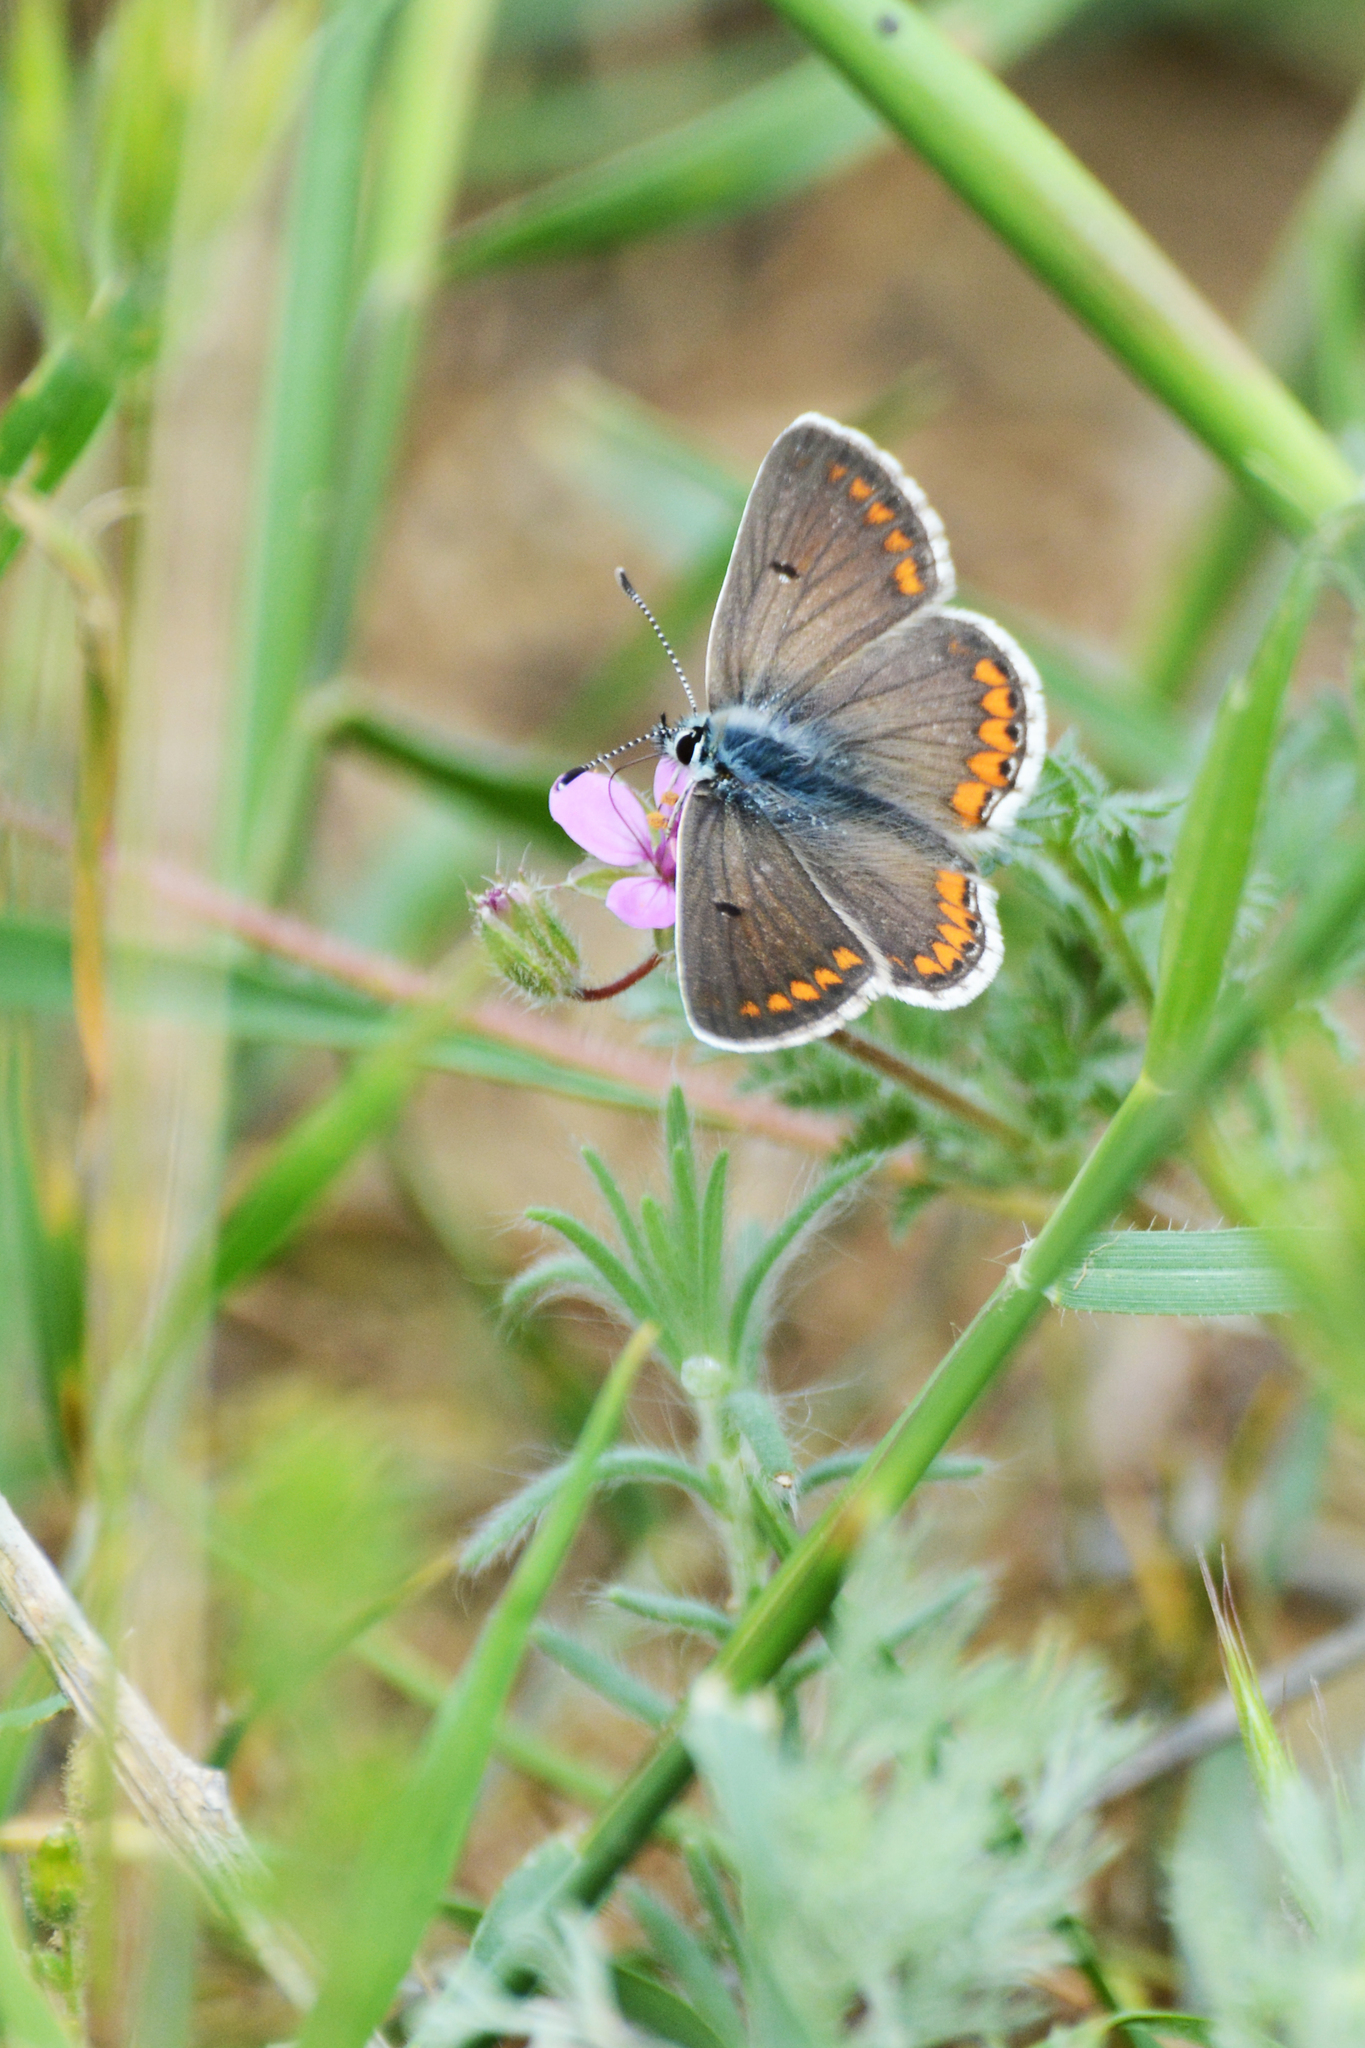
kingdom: Animalia
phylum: Arthropoda
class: Insecta
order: Lepidoptera
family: Lycaenidae
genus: Aricia
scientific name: Aricia agestis
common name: Brown argus
